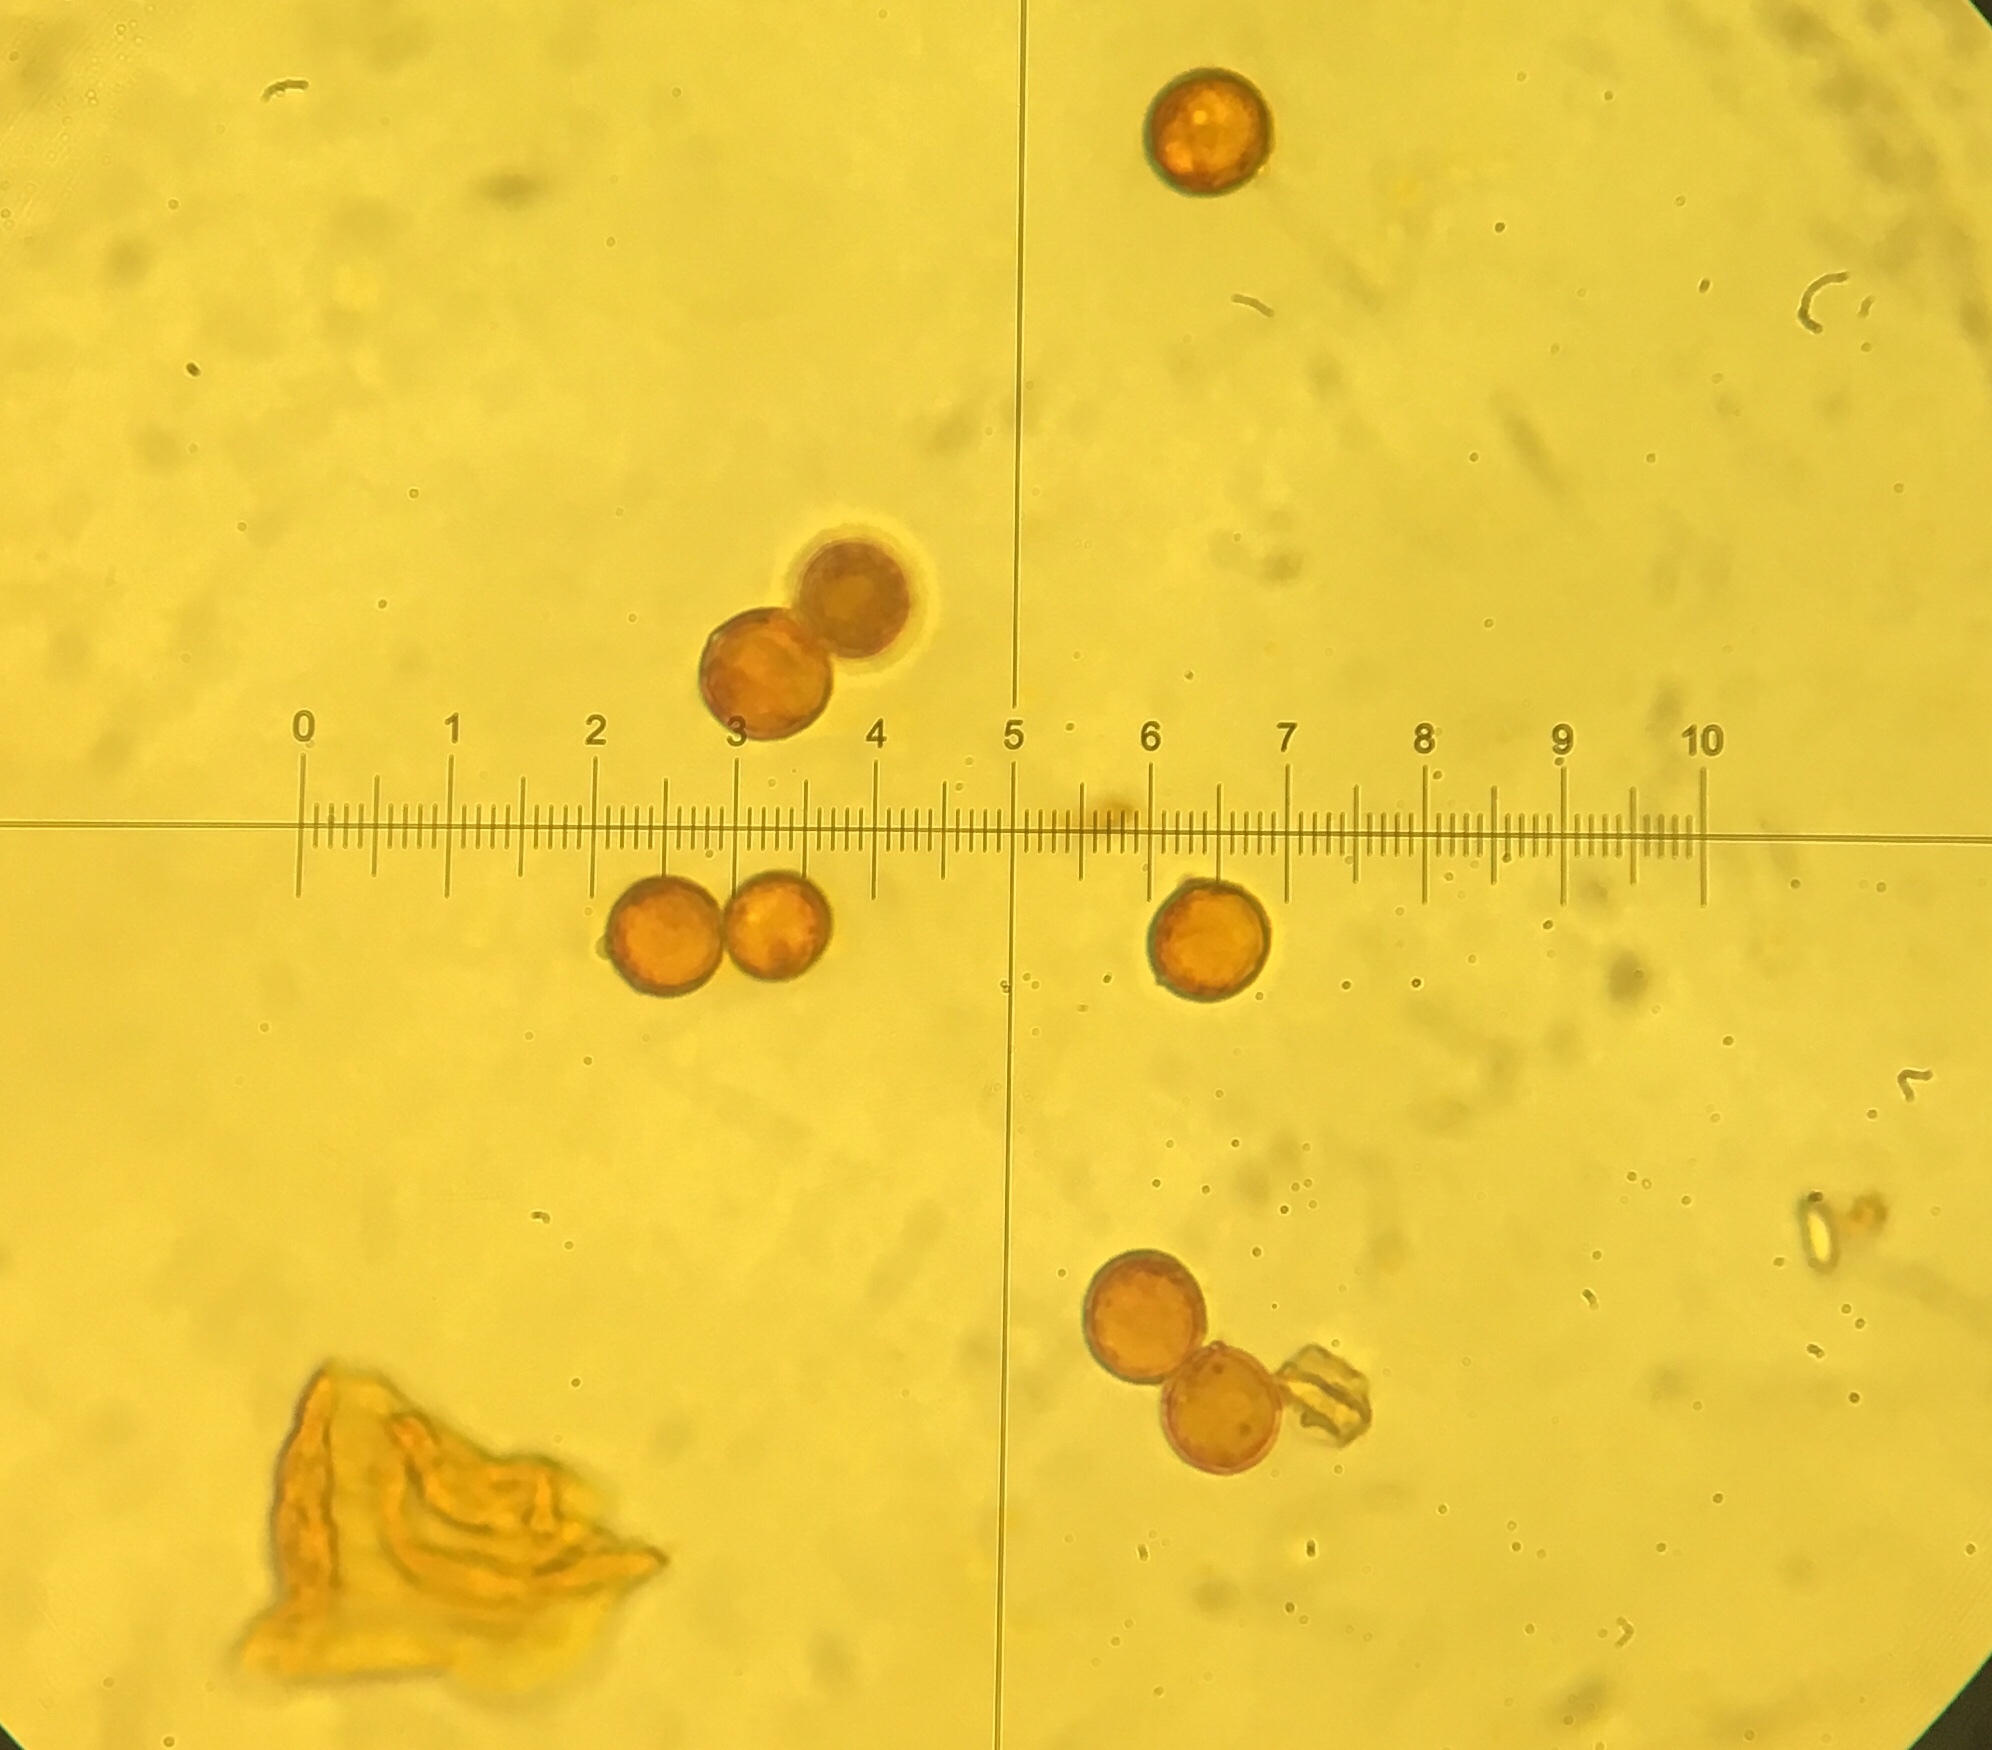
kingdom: Fungi
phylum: Basidiomycota
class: Agaricomycetes
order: Agaricales
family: Amanitaceae
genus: Amanita
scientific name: Amanita rhacopus
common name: Shaggy legged ringless amanita
